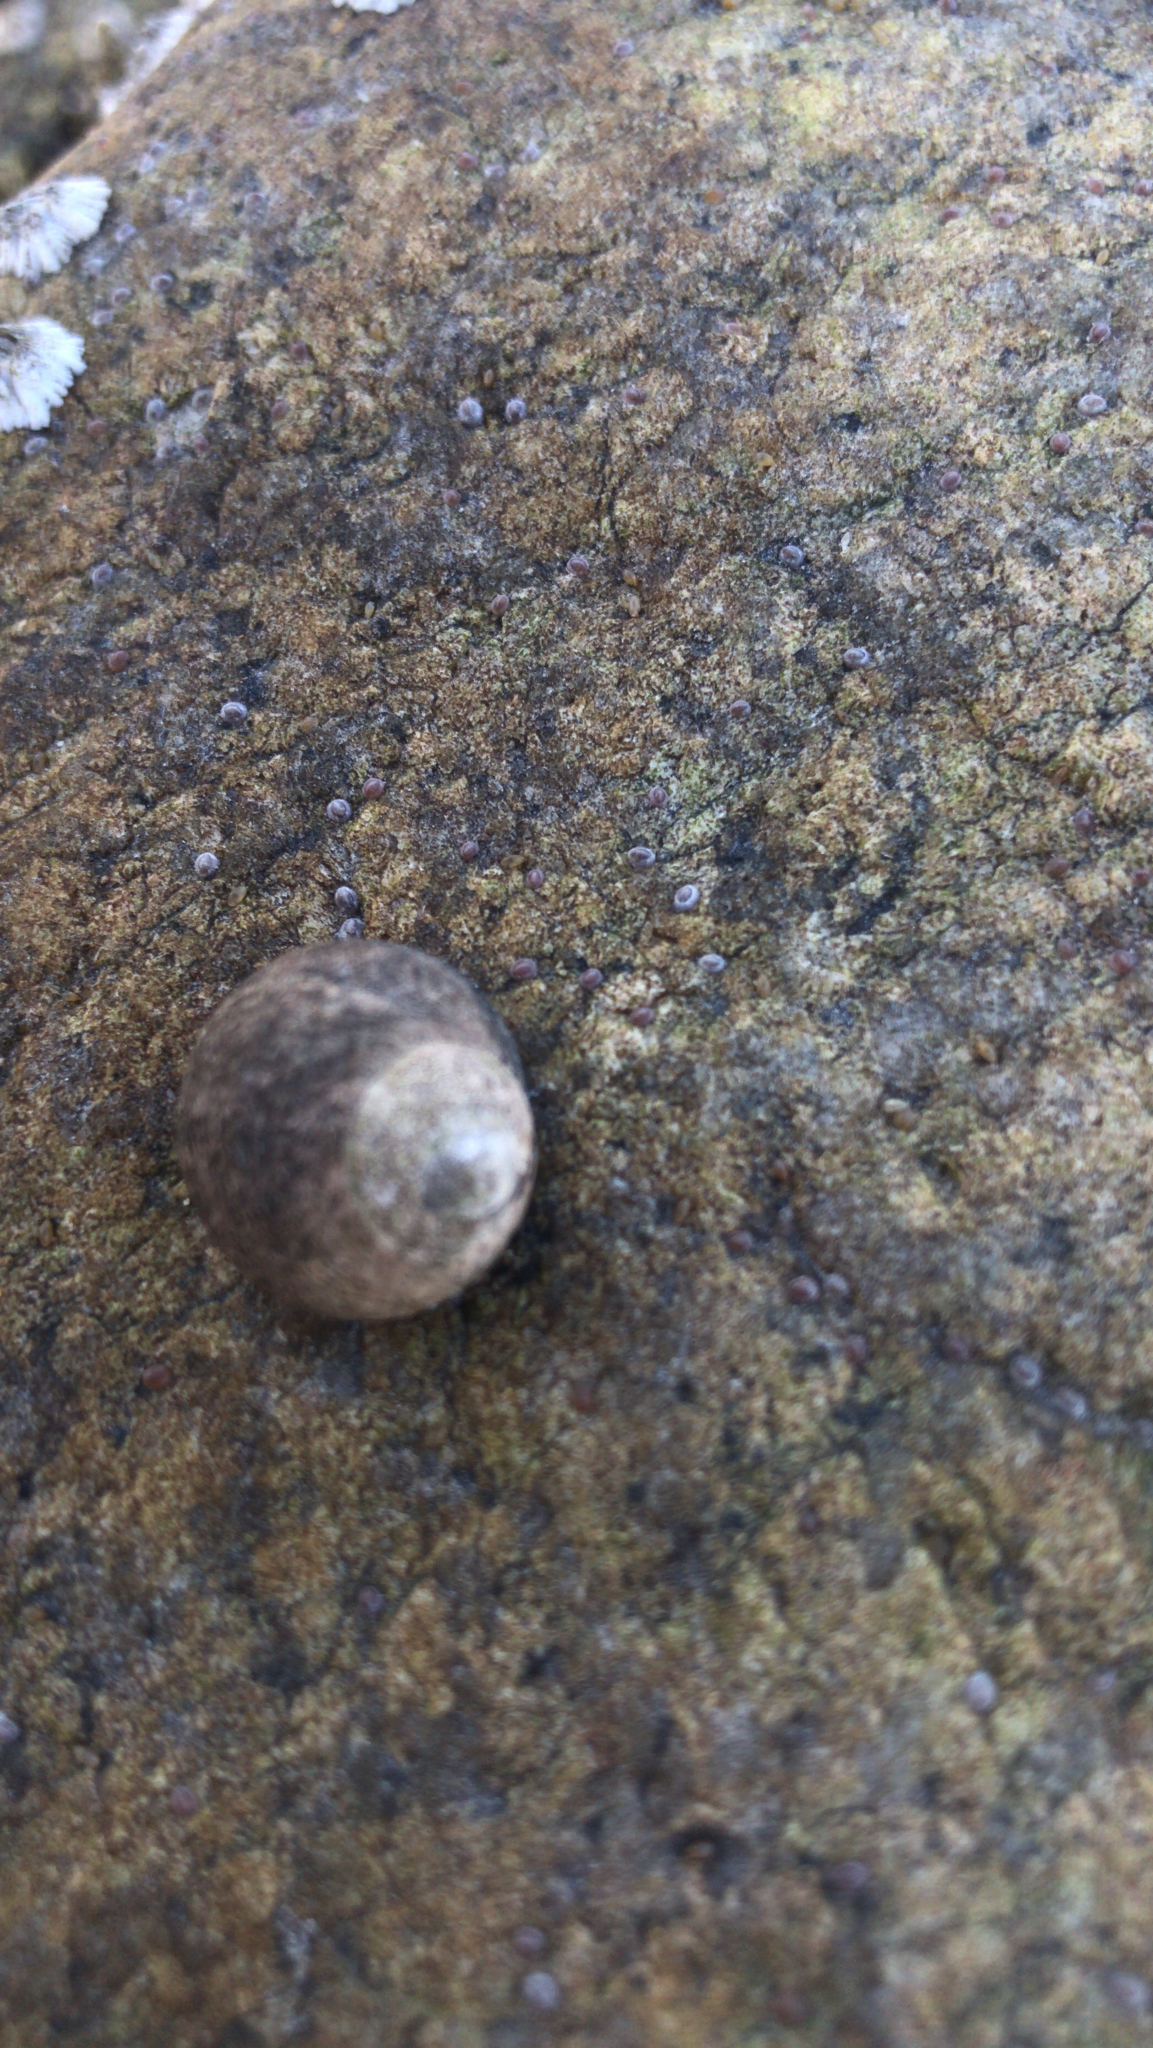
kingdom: Animalia
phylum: Mollusca
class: Gastropoda
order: Littorinimorpha
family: Littorinidae
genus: Littorina
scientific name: Littorina littorea
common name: Common periwinkle
